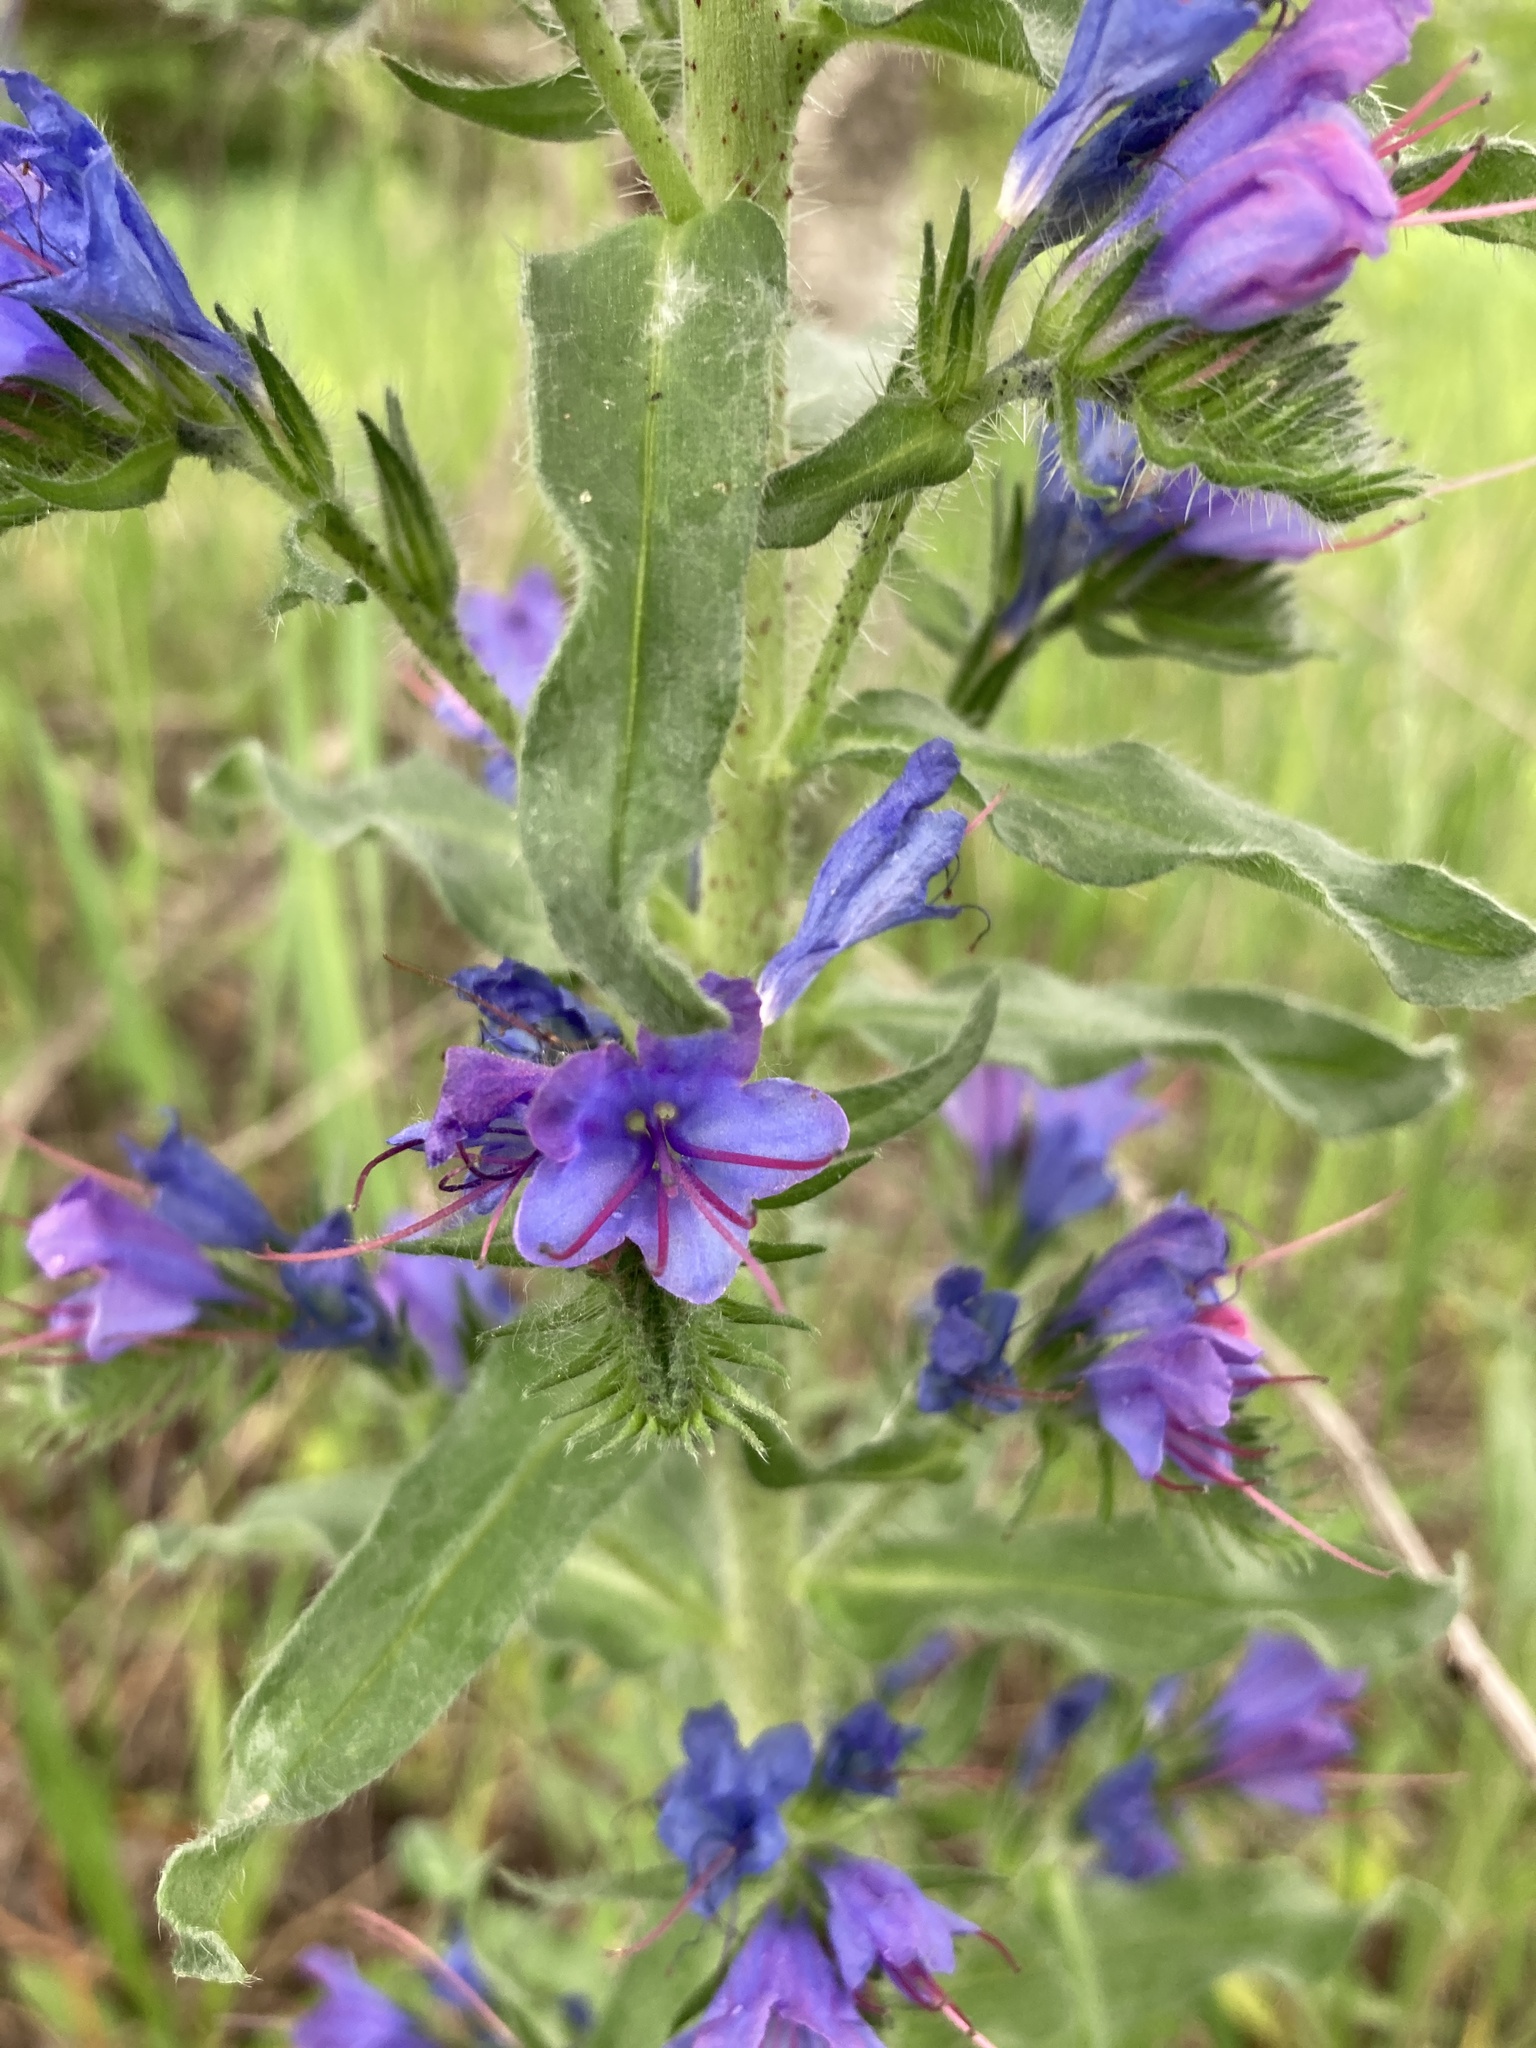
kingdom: Plantae
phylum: Tracheophyta
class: Magnoliopsida
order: Boraginales
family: Boraginaceae
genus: Echium
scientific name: Echium vulgare
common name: Common viper's bugloss
